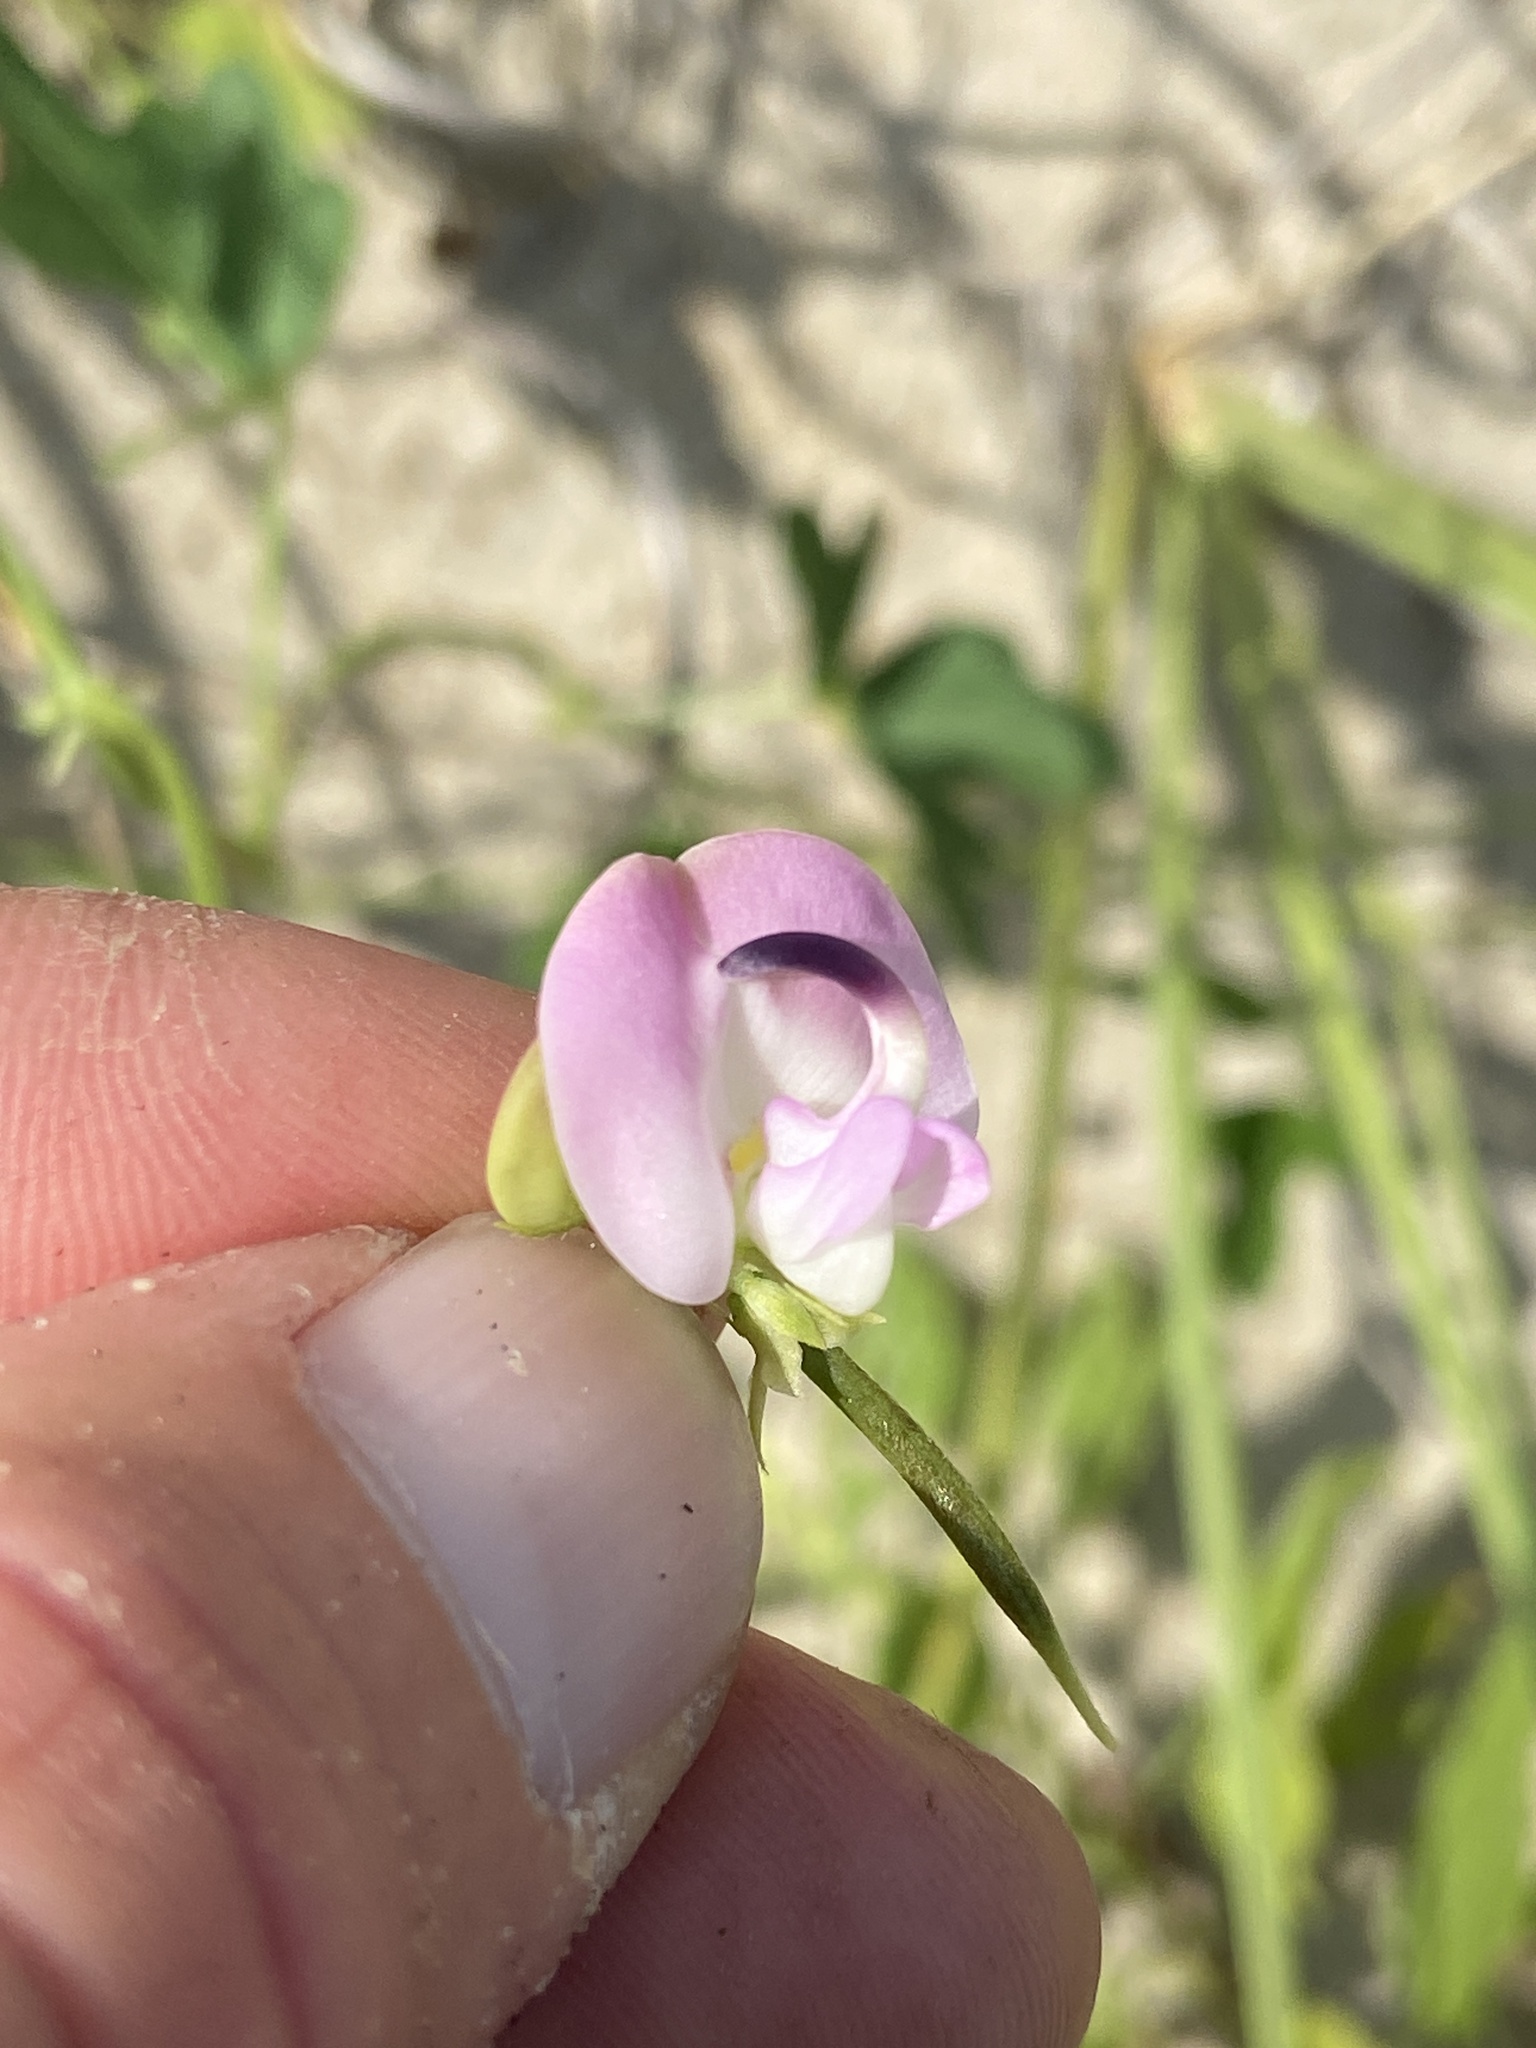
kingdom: Plantae
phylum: Tracheophyta
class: Magnoliopsida
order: Fabales
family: Fabaceae
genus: Strophostyles
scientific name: Strophostyles helvola
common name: Trailing wild bean
